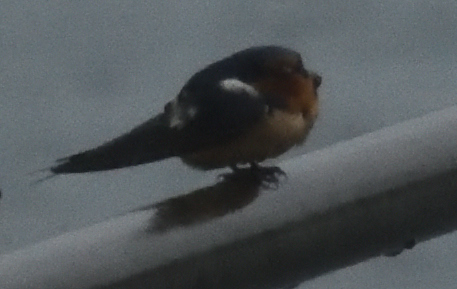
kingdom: Animalia
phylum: Chordata
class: Aves
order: Passeriformes
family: Hirundinidae
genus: Hirundo
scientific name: Hirundo rustica
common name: Barn swallow
